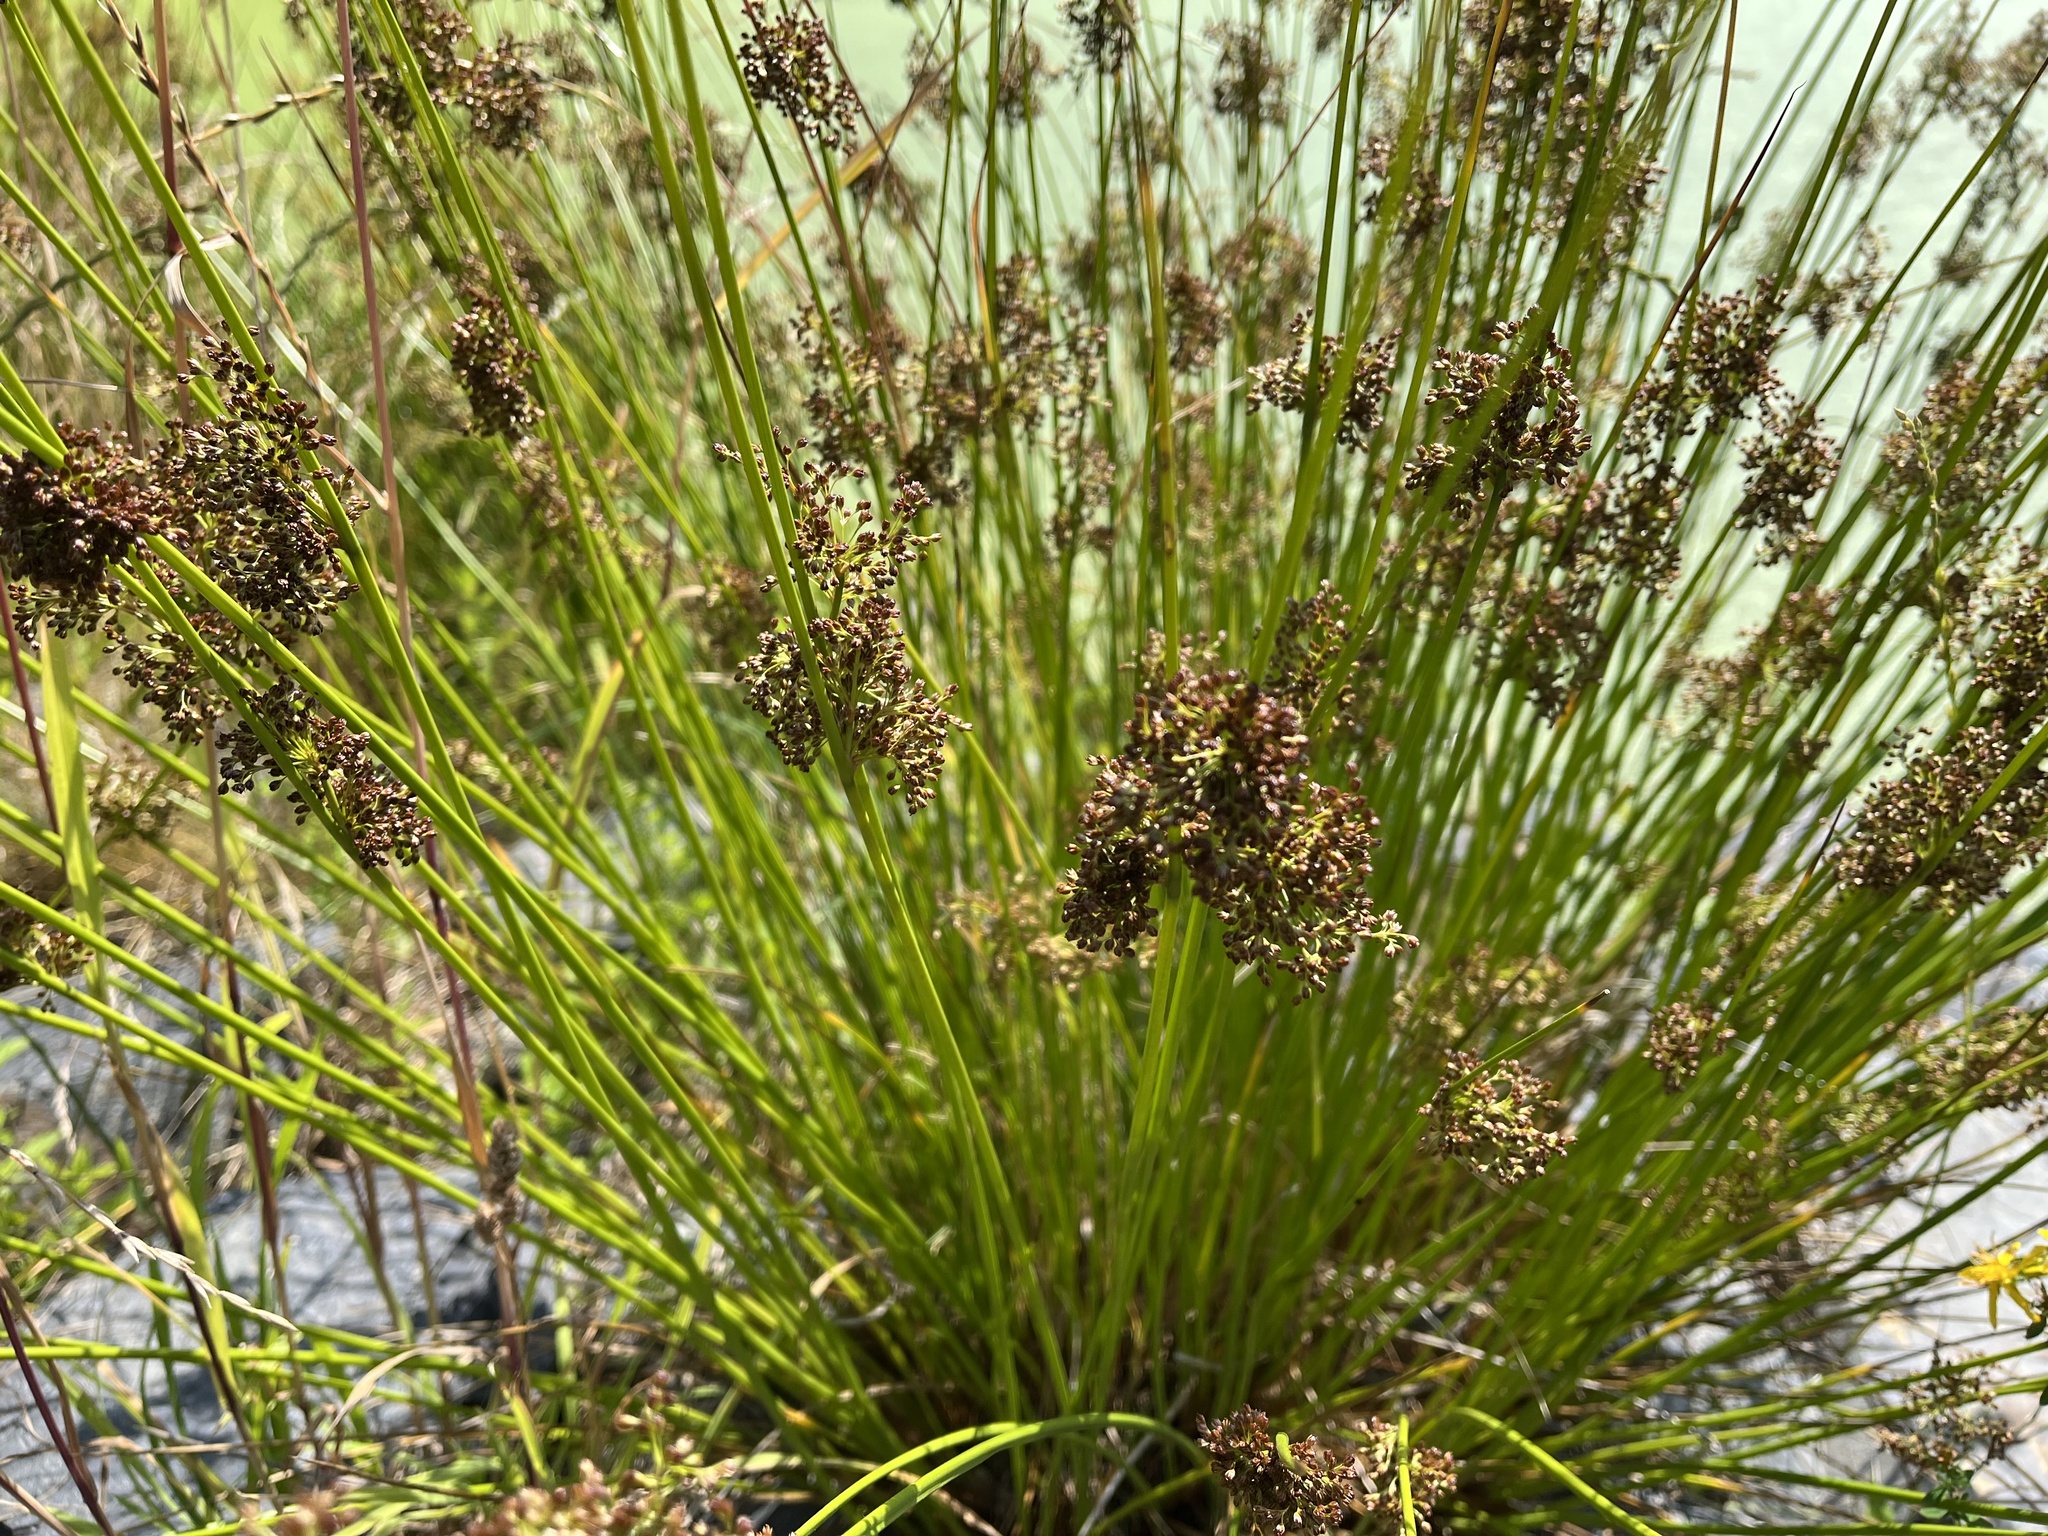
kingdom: Plantae
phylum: Tracheophyta
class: Liliopsida
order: Poales
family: Juncaceae
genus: Juncus
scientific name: Juncus effusus
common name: Soft rush
